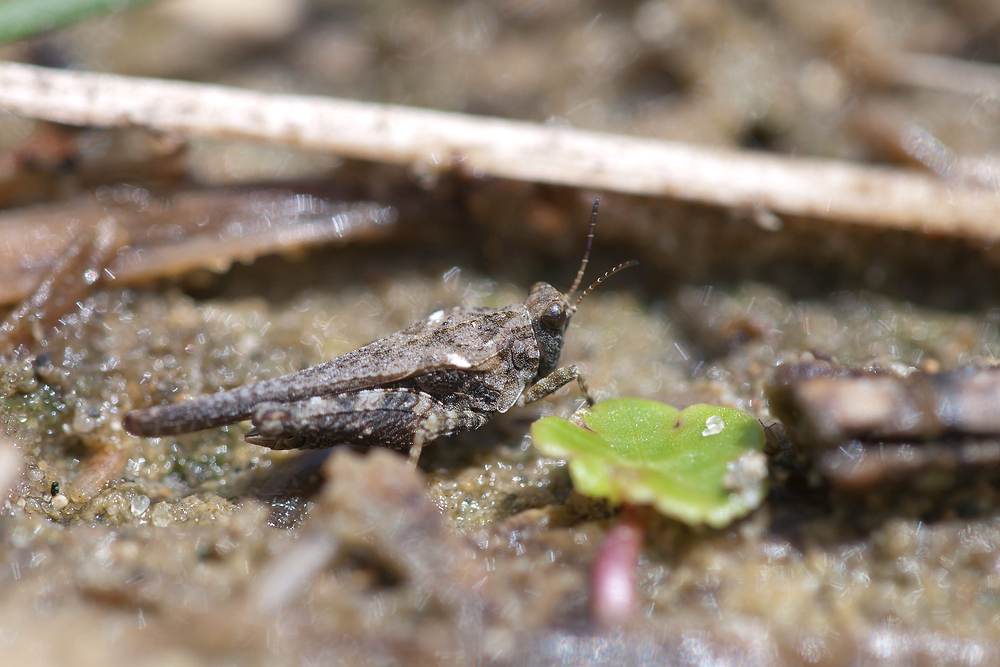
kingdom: Animalia
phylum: Arthropoda
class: Insecta
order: Orthoptera
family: Tetrigidae
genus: Tetrix
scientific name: Tetrix ceperoi
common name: Cepero's ground-hopper
